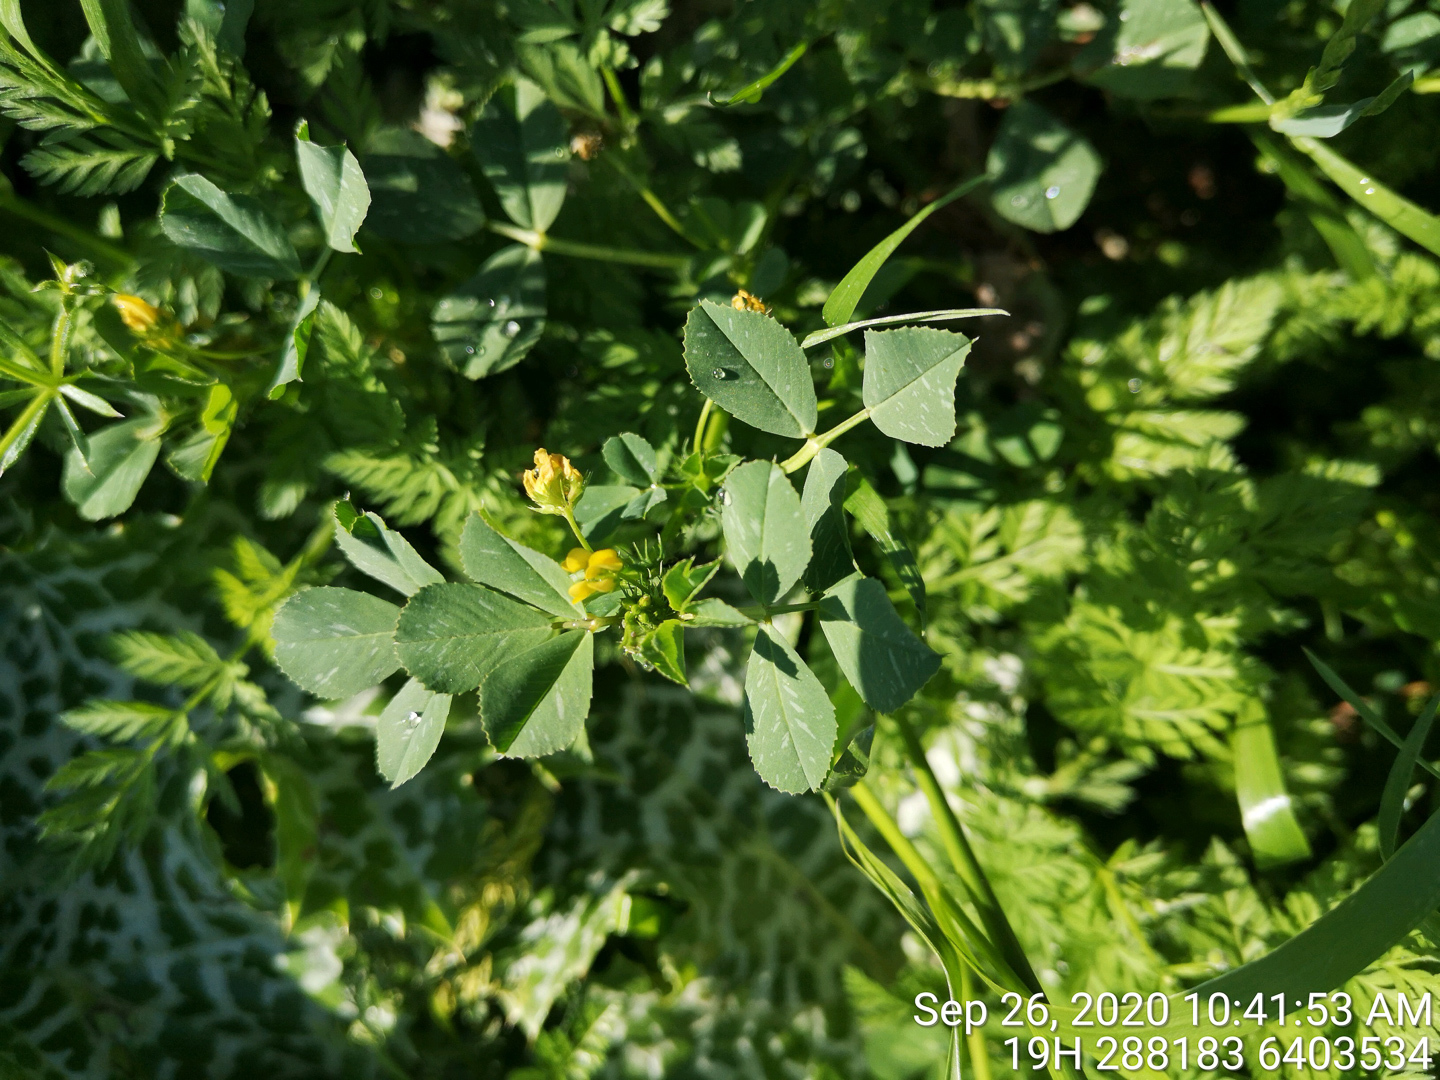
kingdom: Plantae
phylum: Tracheophyta
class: Magnoliopsida
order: Fabales
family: Fabaceae
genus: Medicago
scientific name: Medicago polymorpha
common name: Burclover
